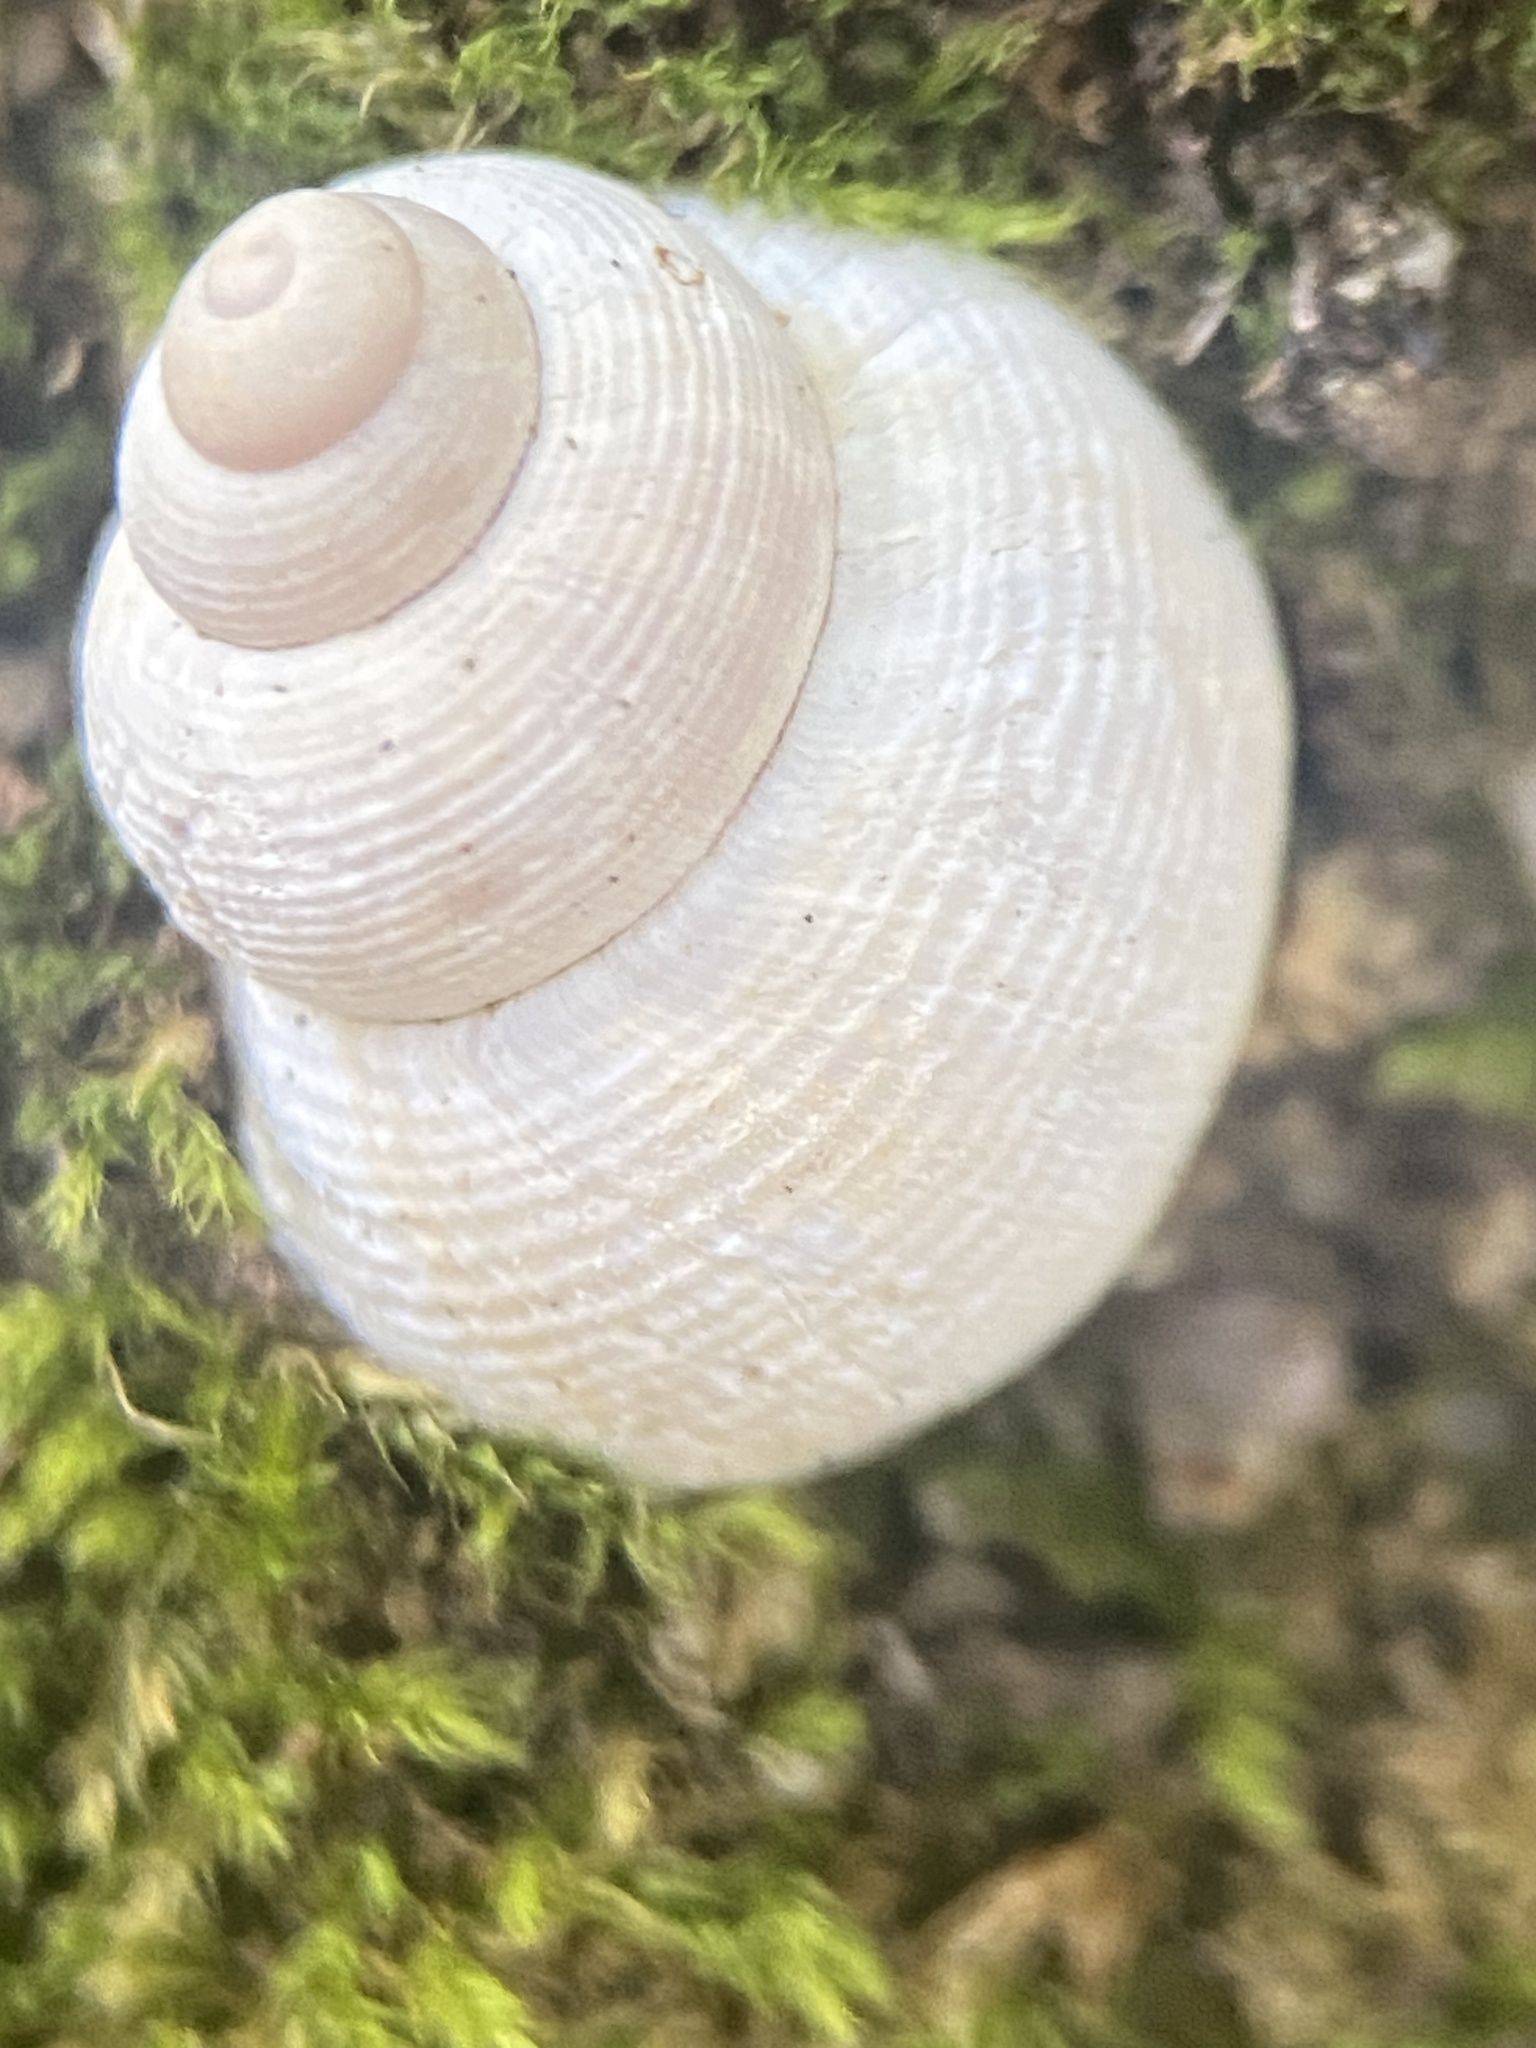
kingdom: Animalia
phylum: Mollusca
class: Gastropoda
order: Littorinimorpha
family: Pomatiidae
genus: Pomatias
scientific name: Pomatias elegans
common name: Red-mouthed snail
